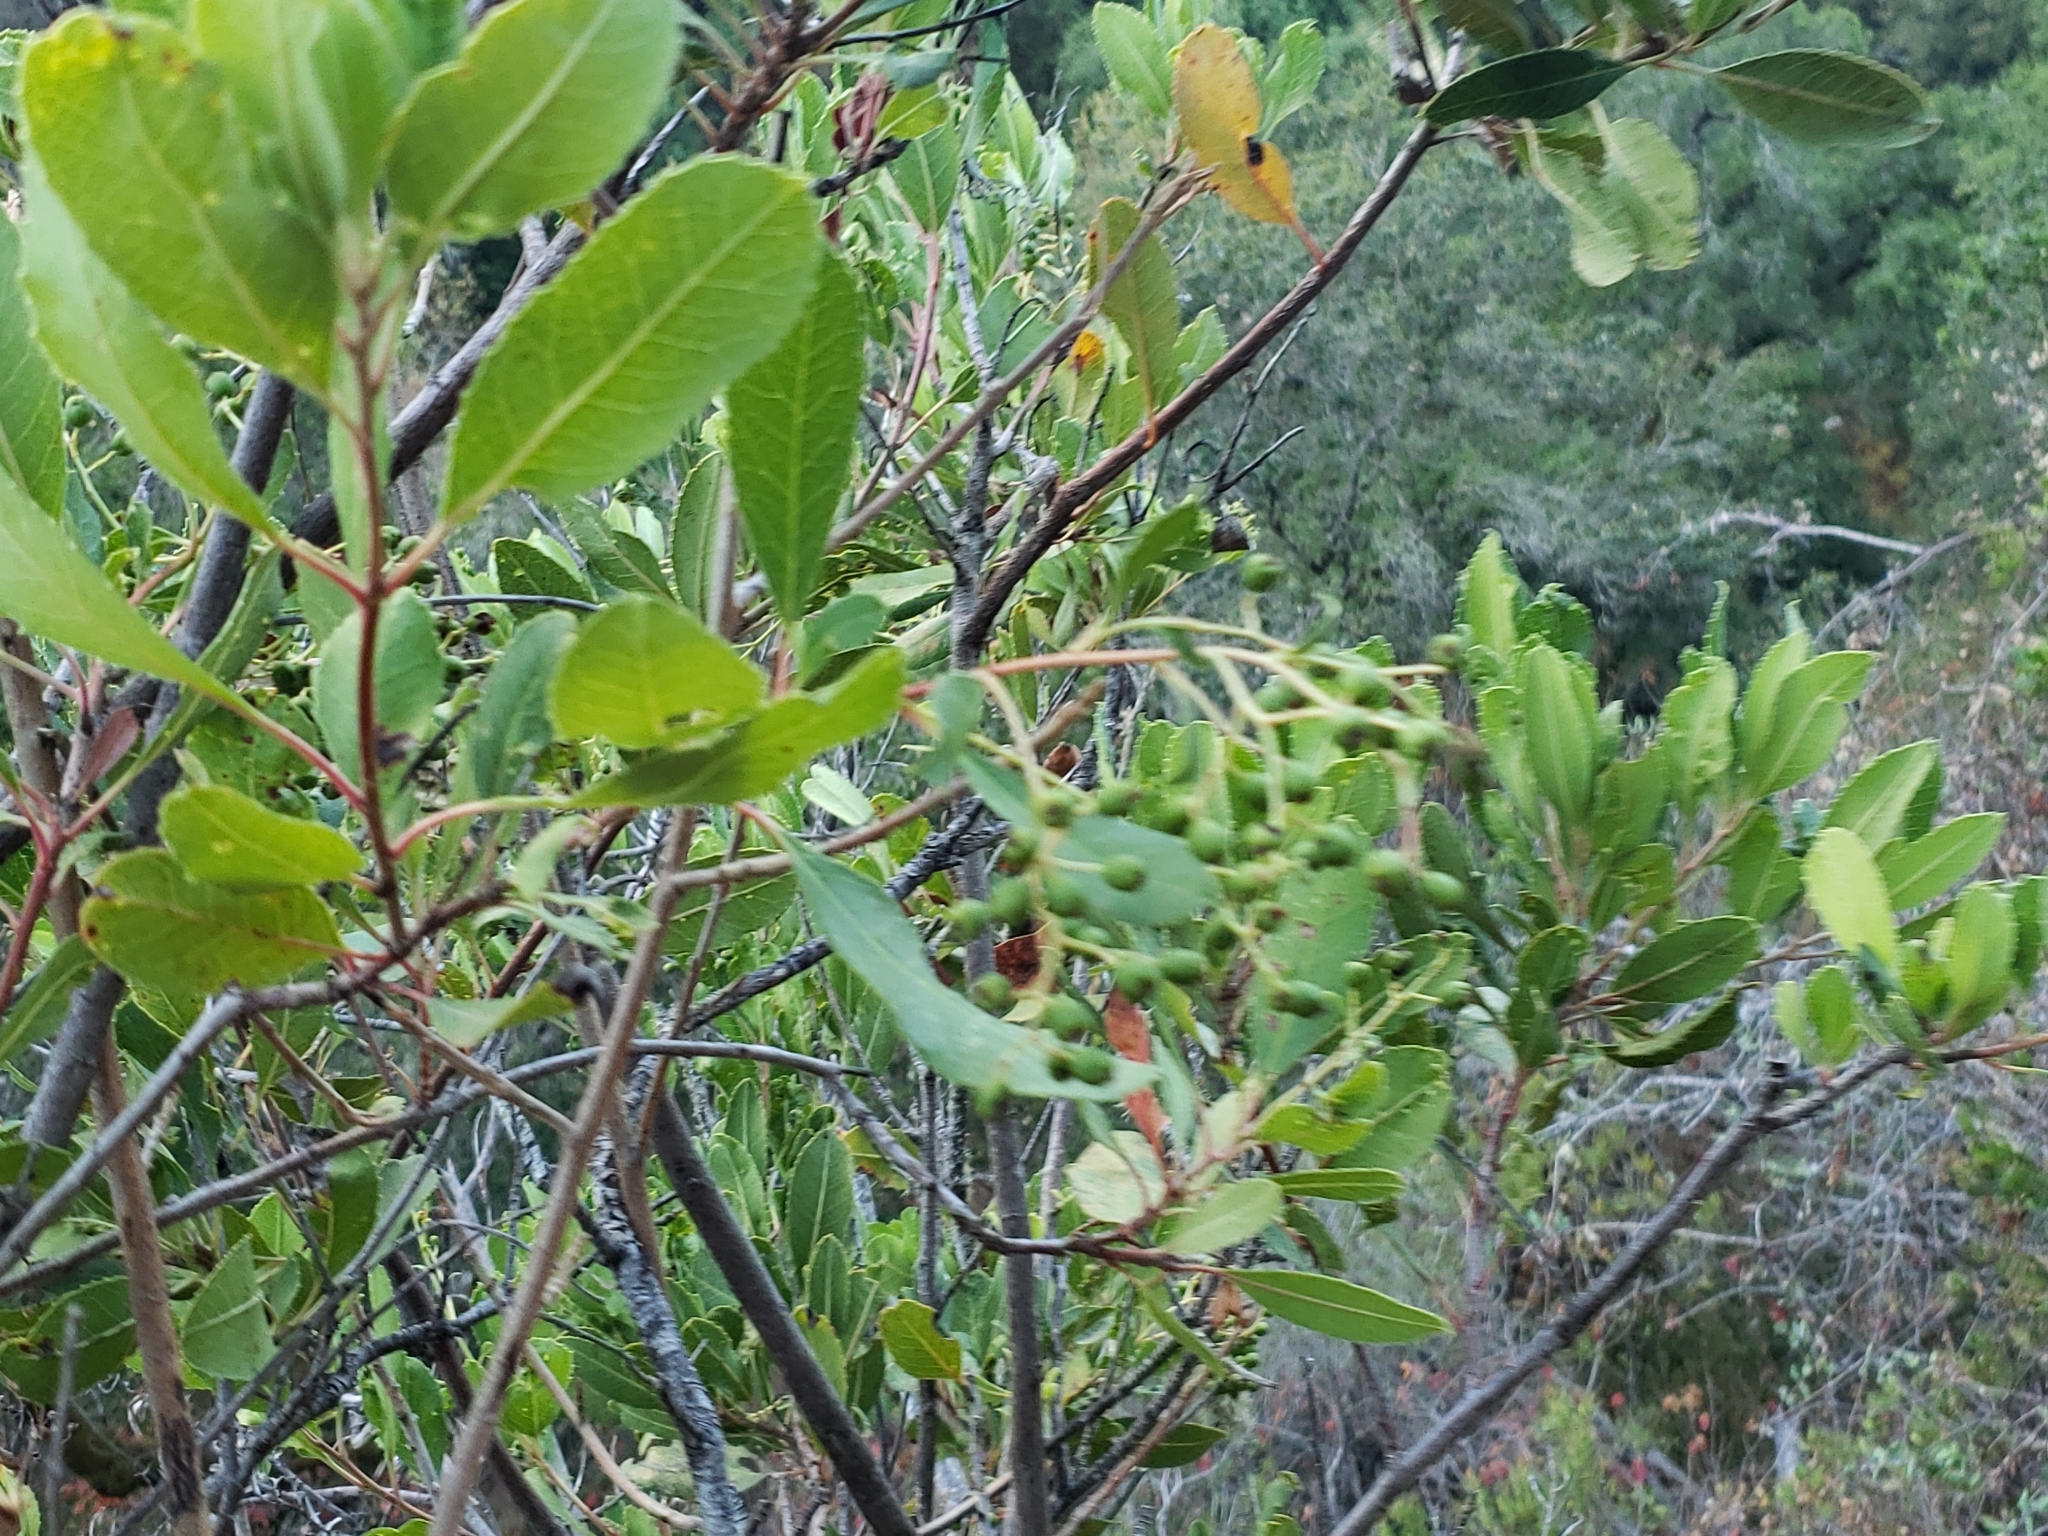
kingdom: Plantae
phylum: Tracheophyta
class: Magnoliopsida
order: Rosales
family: Rosaceae
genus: Heteromeles
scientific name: Heteromeles arbutifolia
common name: California-holly
